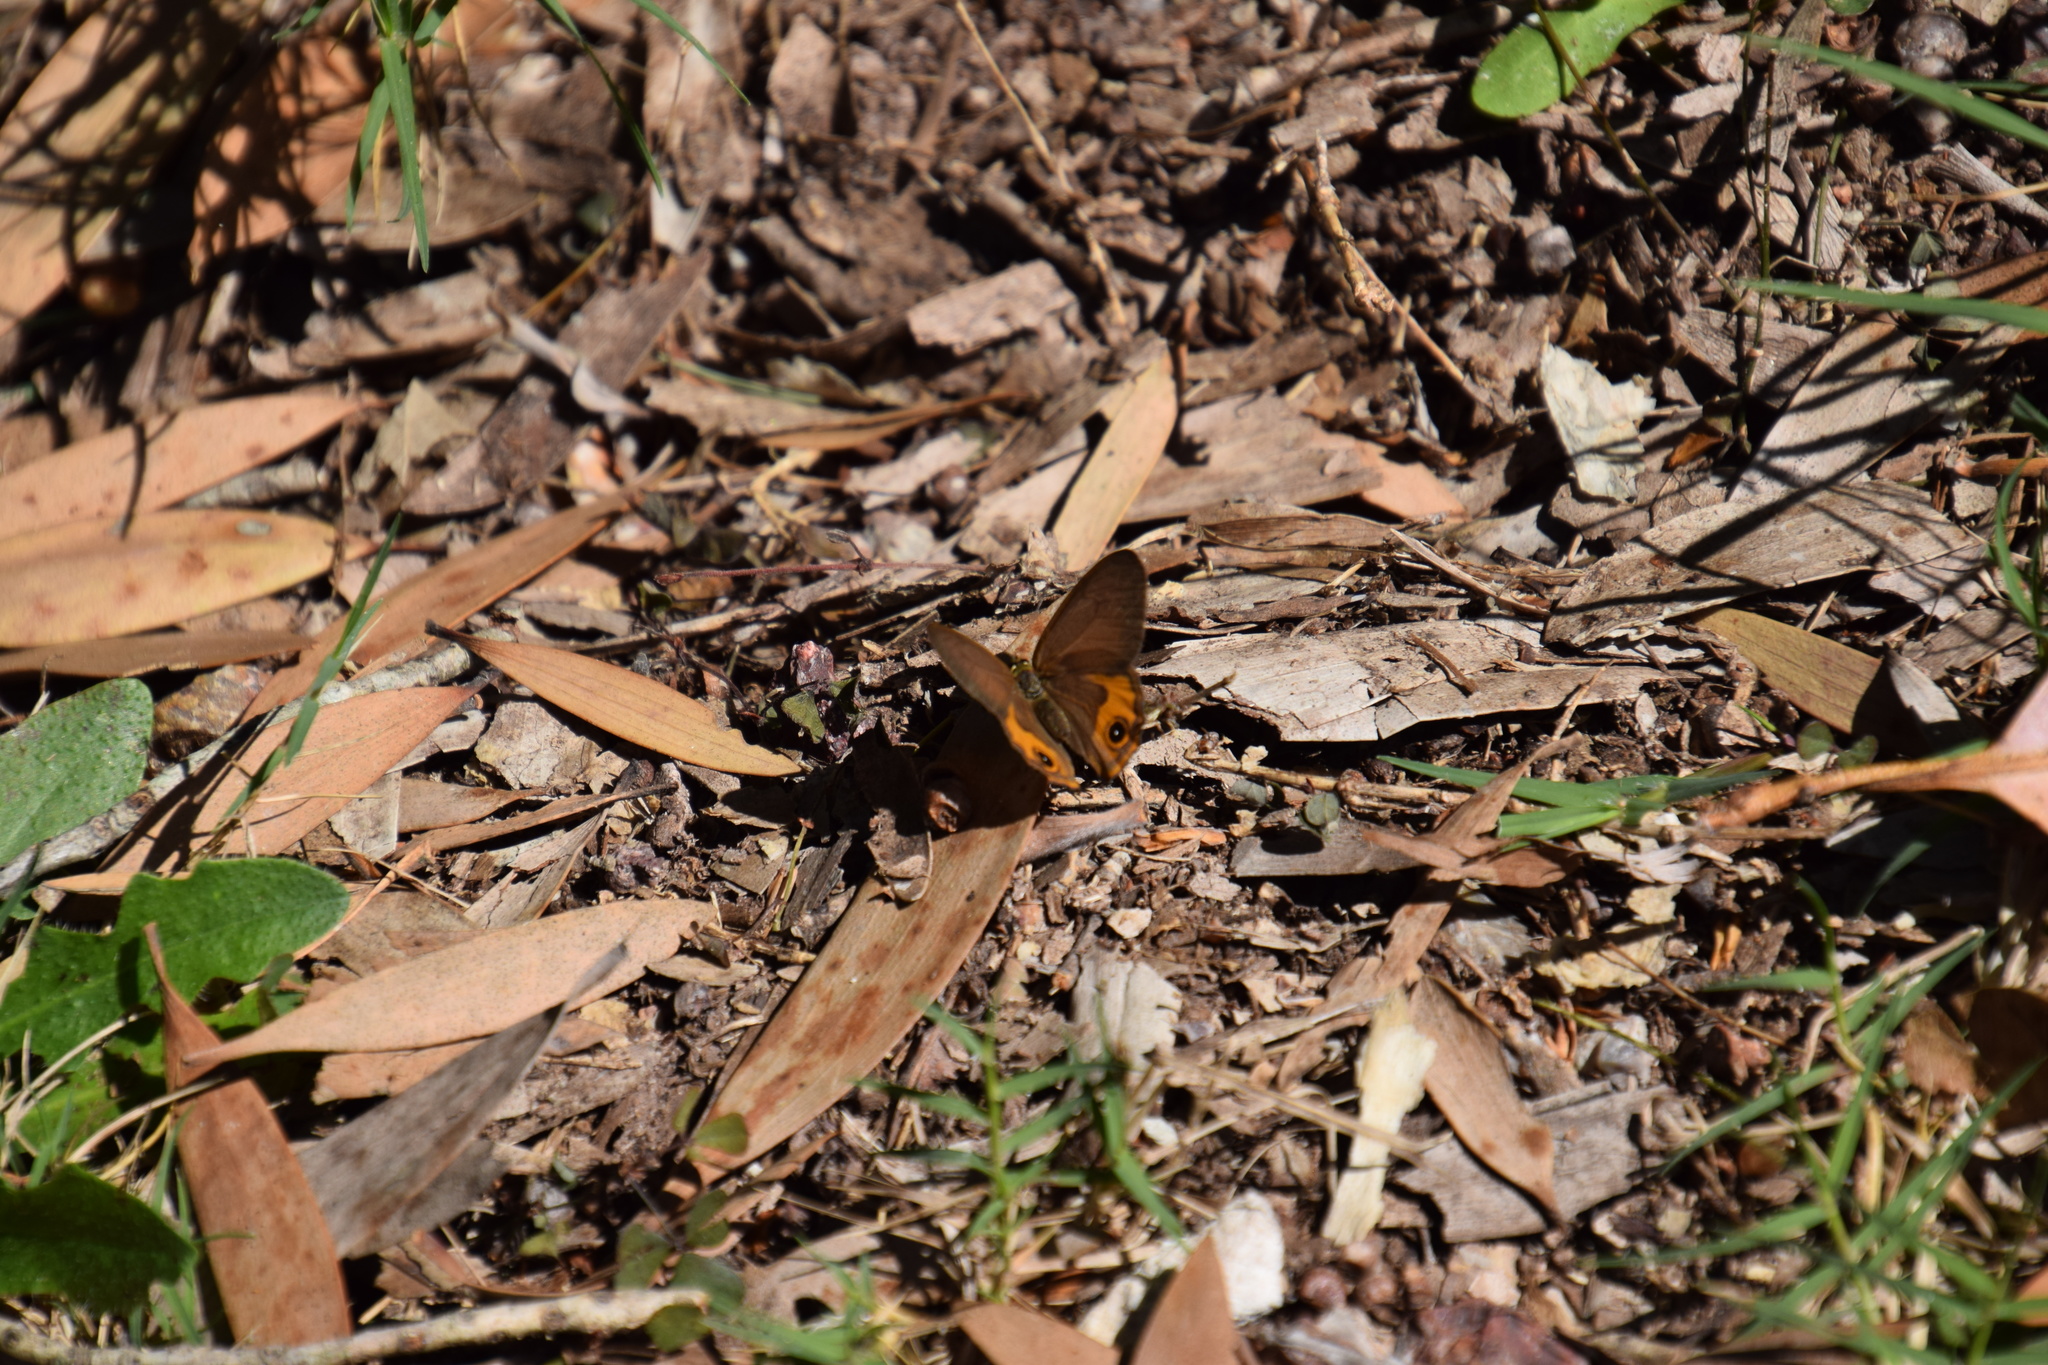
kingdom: Animalia
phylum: Arthropoda
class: Insecta
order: Lepidoptera
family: Nymphalidae
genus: Hypocysta
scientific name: Hypocysta metirius
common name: Brown ringlet
